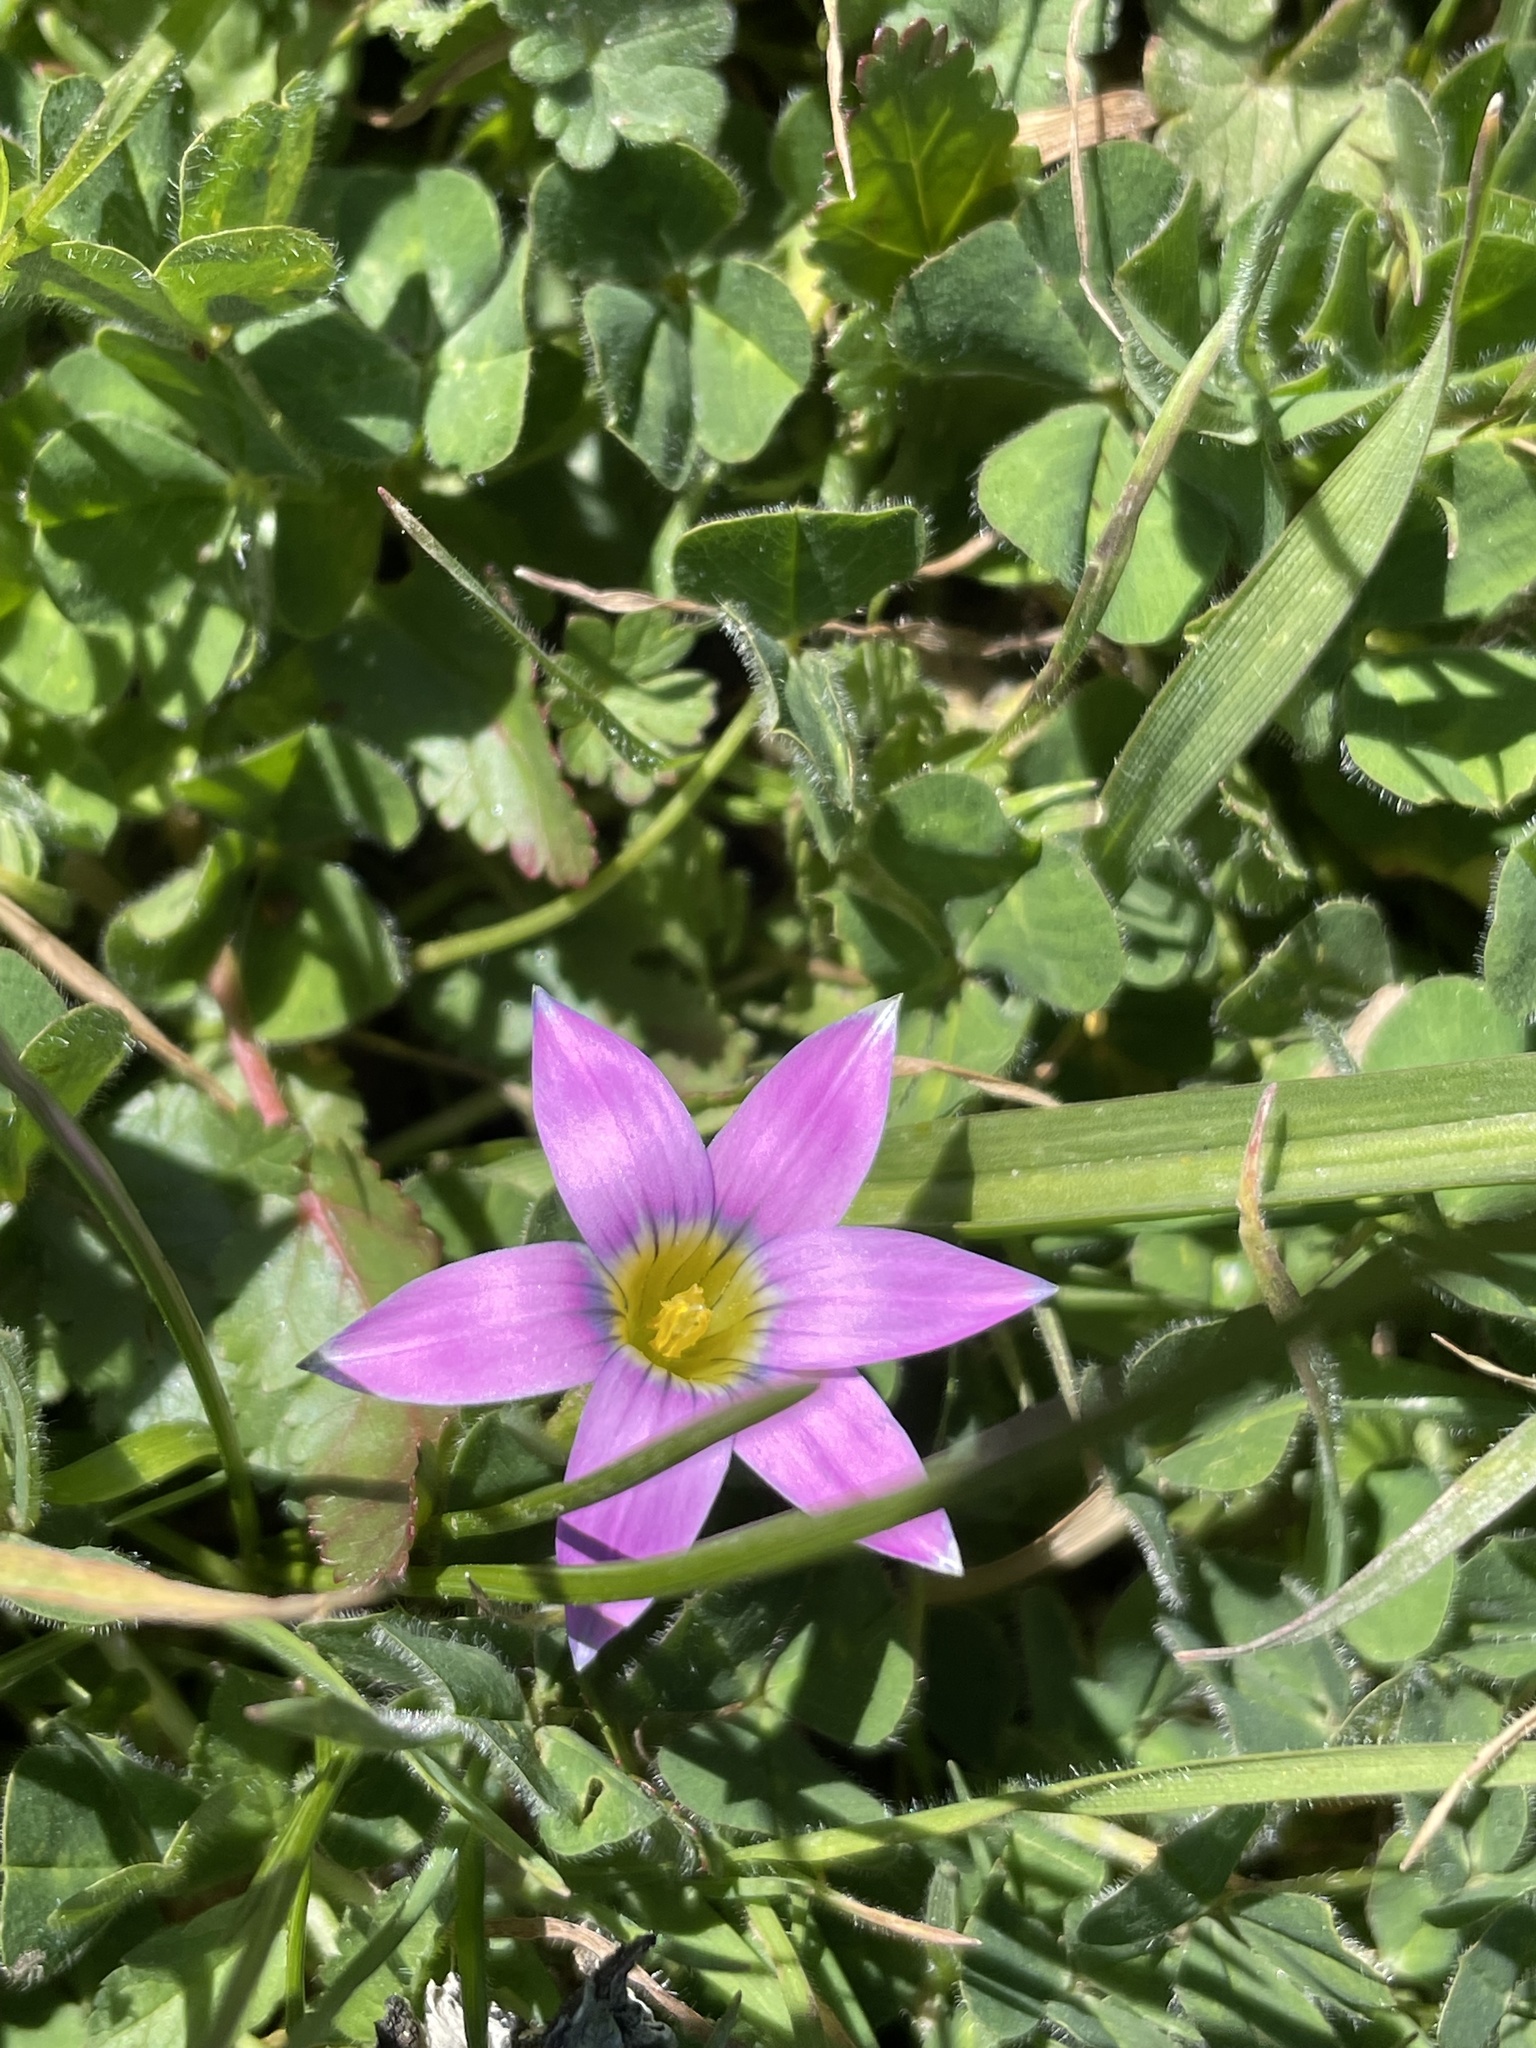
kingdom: Plantae
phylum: Tracheophyta
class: Liliopsida
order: Asparagales
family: Iridaceae
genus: Romulea
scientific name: Romulea rosea
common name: Oniongrass
